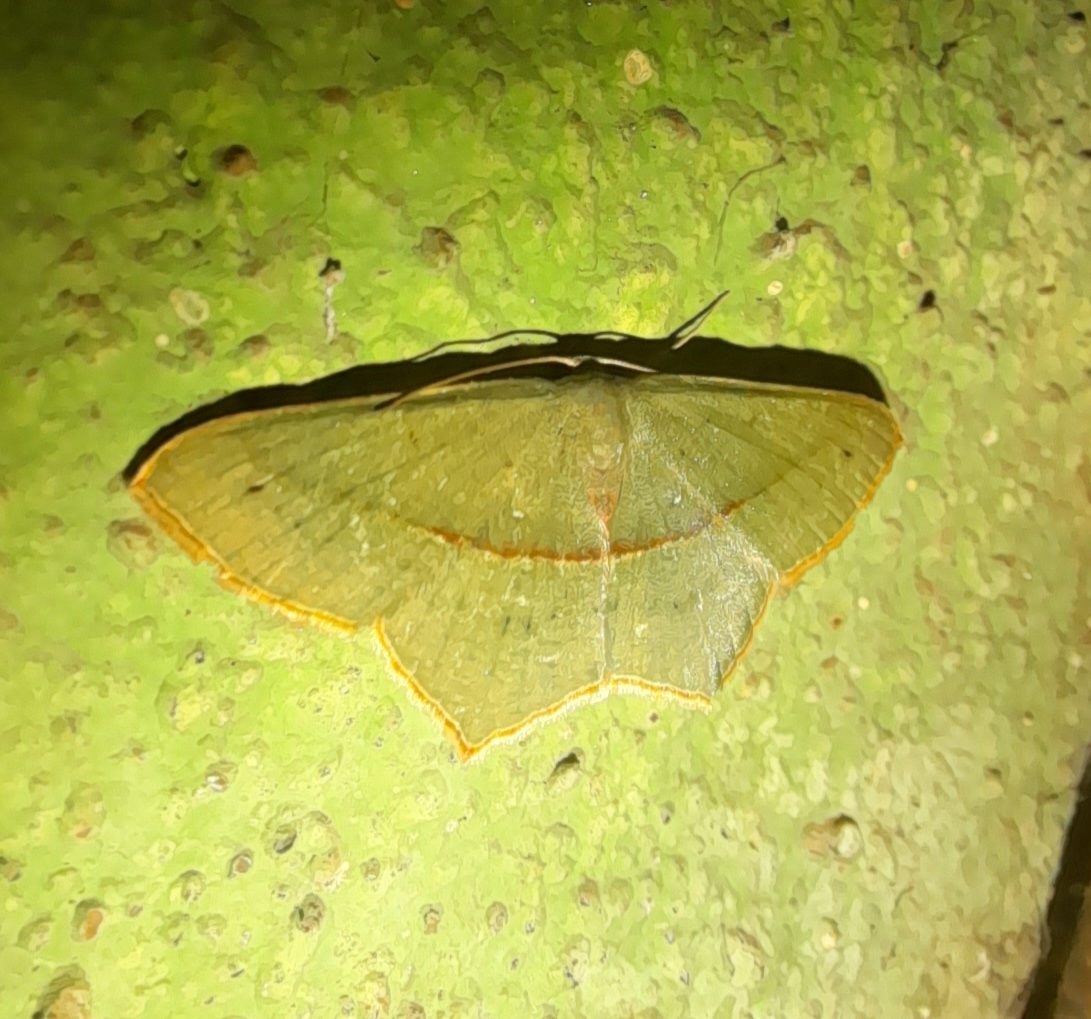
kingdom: Animalia
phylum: Arthropoda
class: Insecta
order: Lepidoptera
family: Geometridae
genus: Traminda
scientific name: Traminda mundissima
